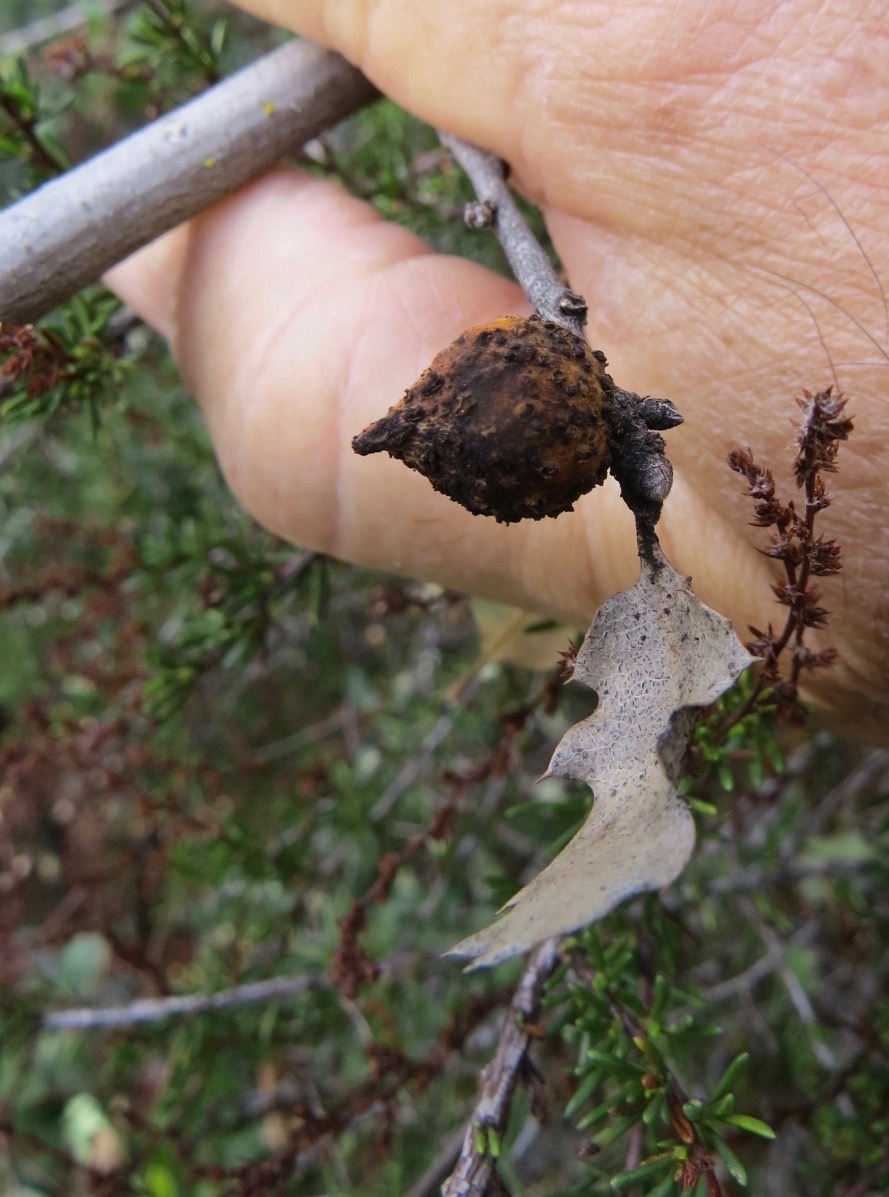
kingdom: Animalia
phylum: Arthropoda
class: Insecta
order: Hymenoptera
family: Cynipidae
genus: Burnettweldia
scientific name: Burnettweldia
